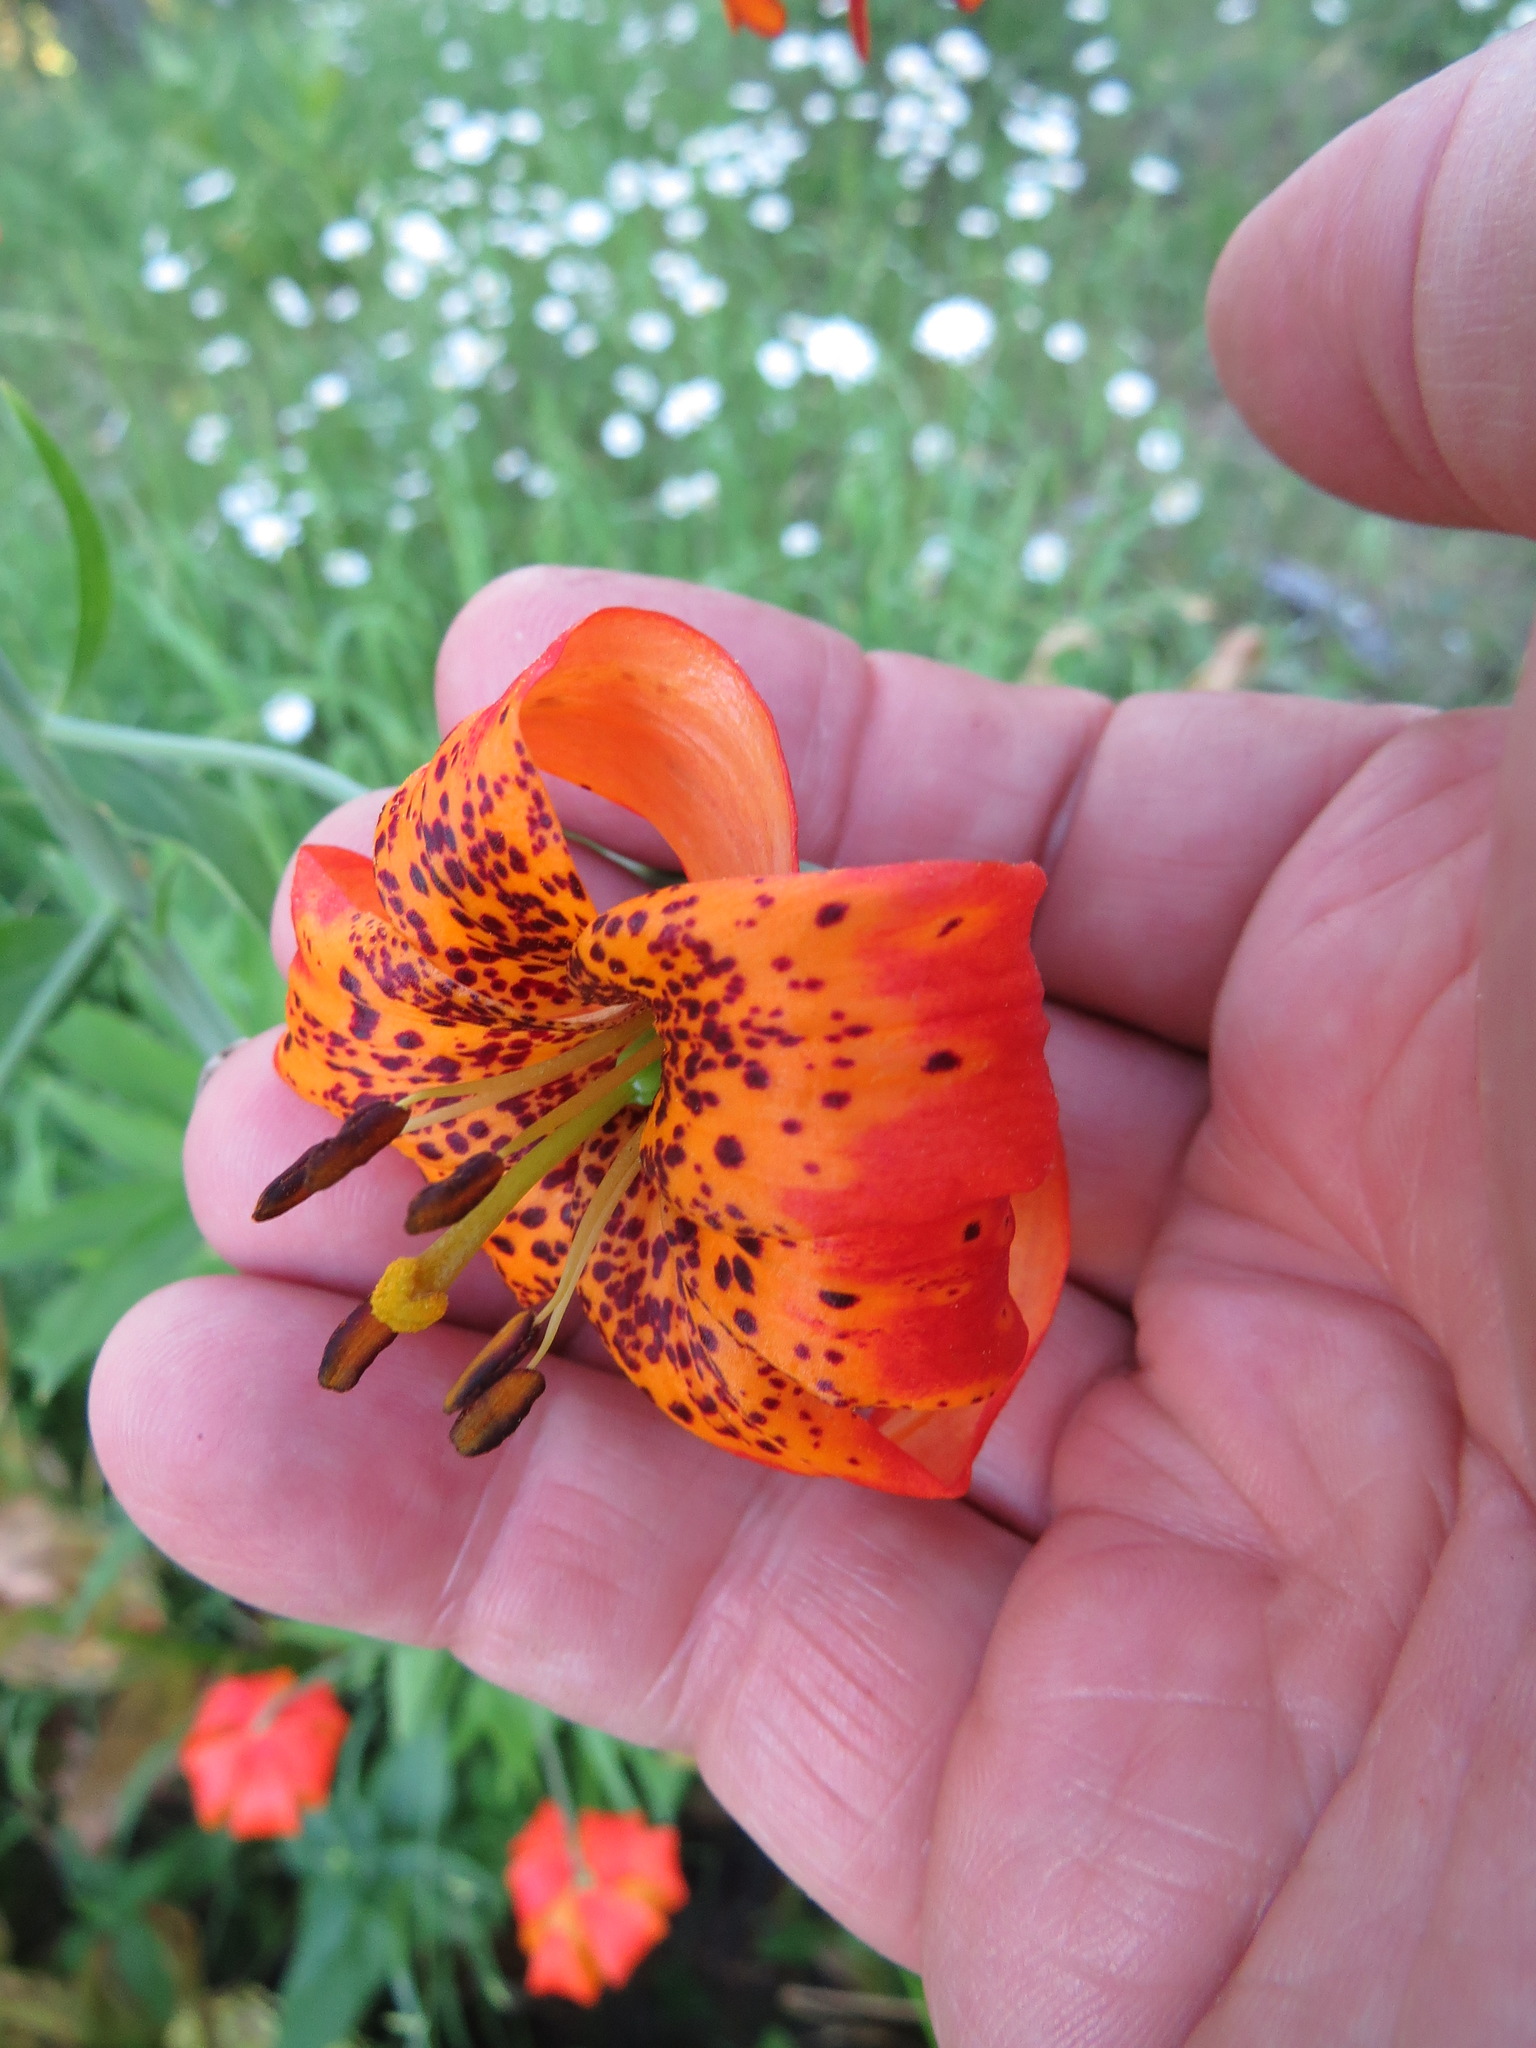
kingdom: Plantae
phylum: Tracheophyta
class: Liliopsida
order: Liliales
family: Liliaceae
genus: Lilium
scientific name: Lilium pardalinum
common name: Panther lily
